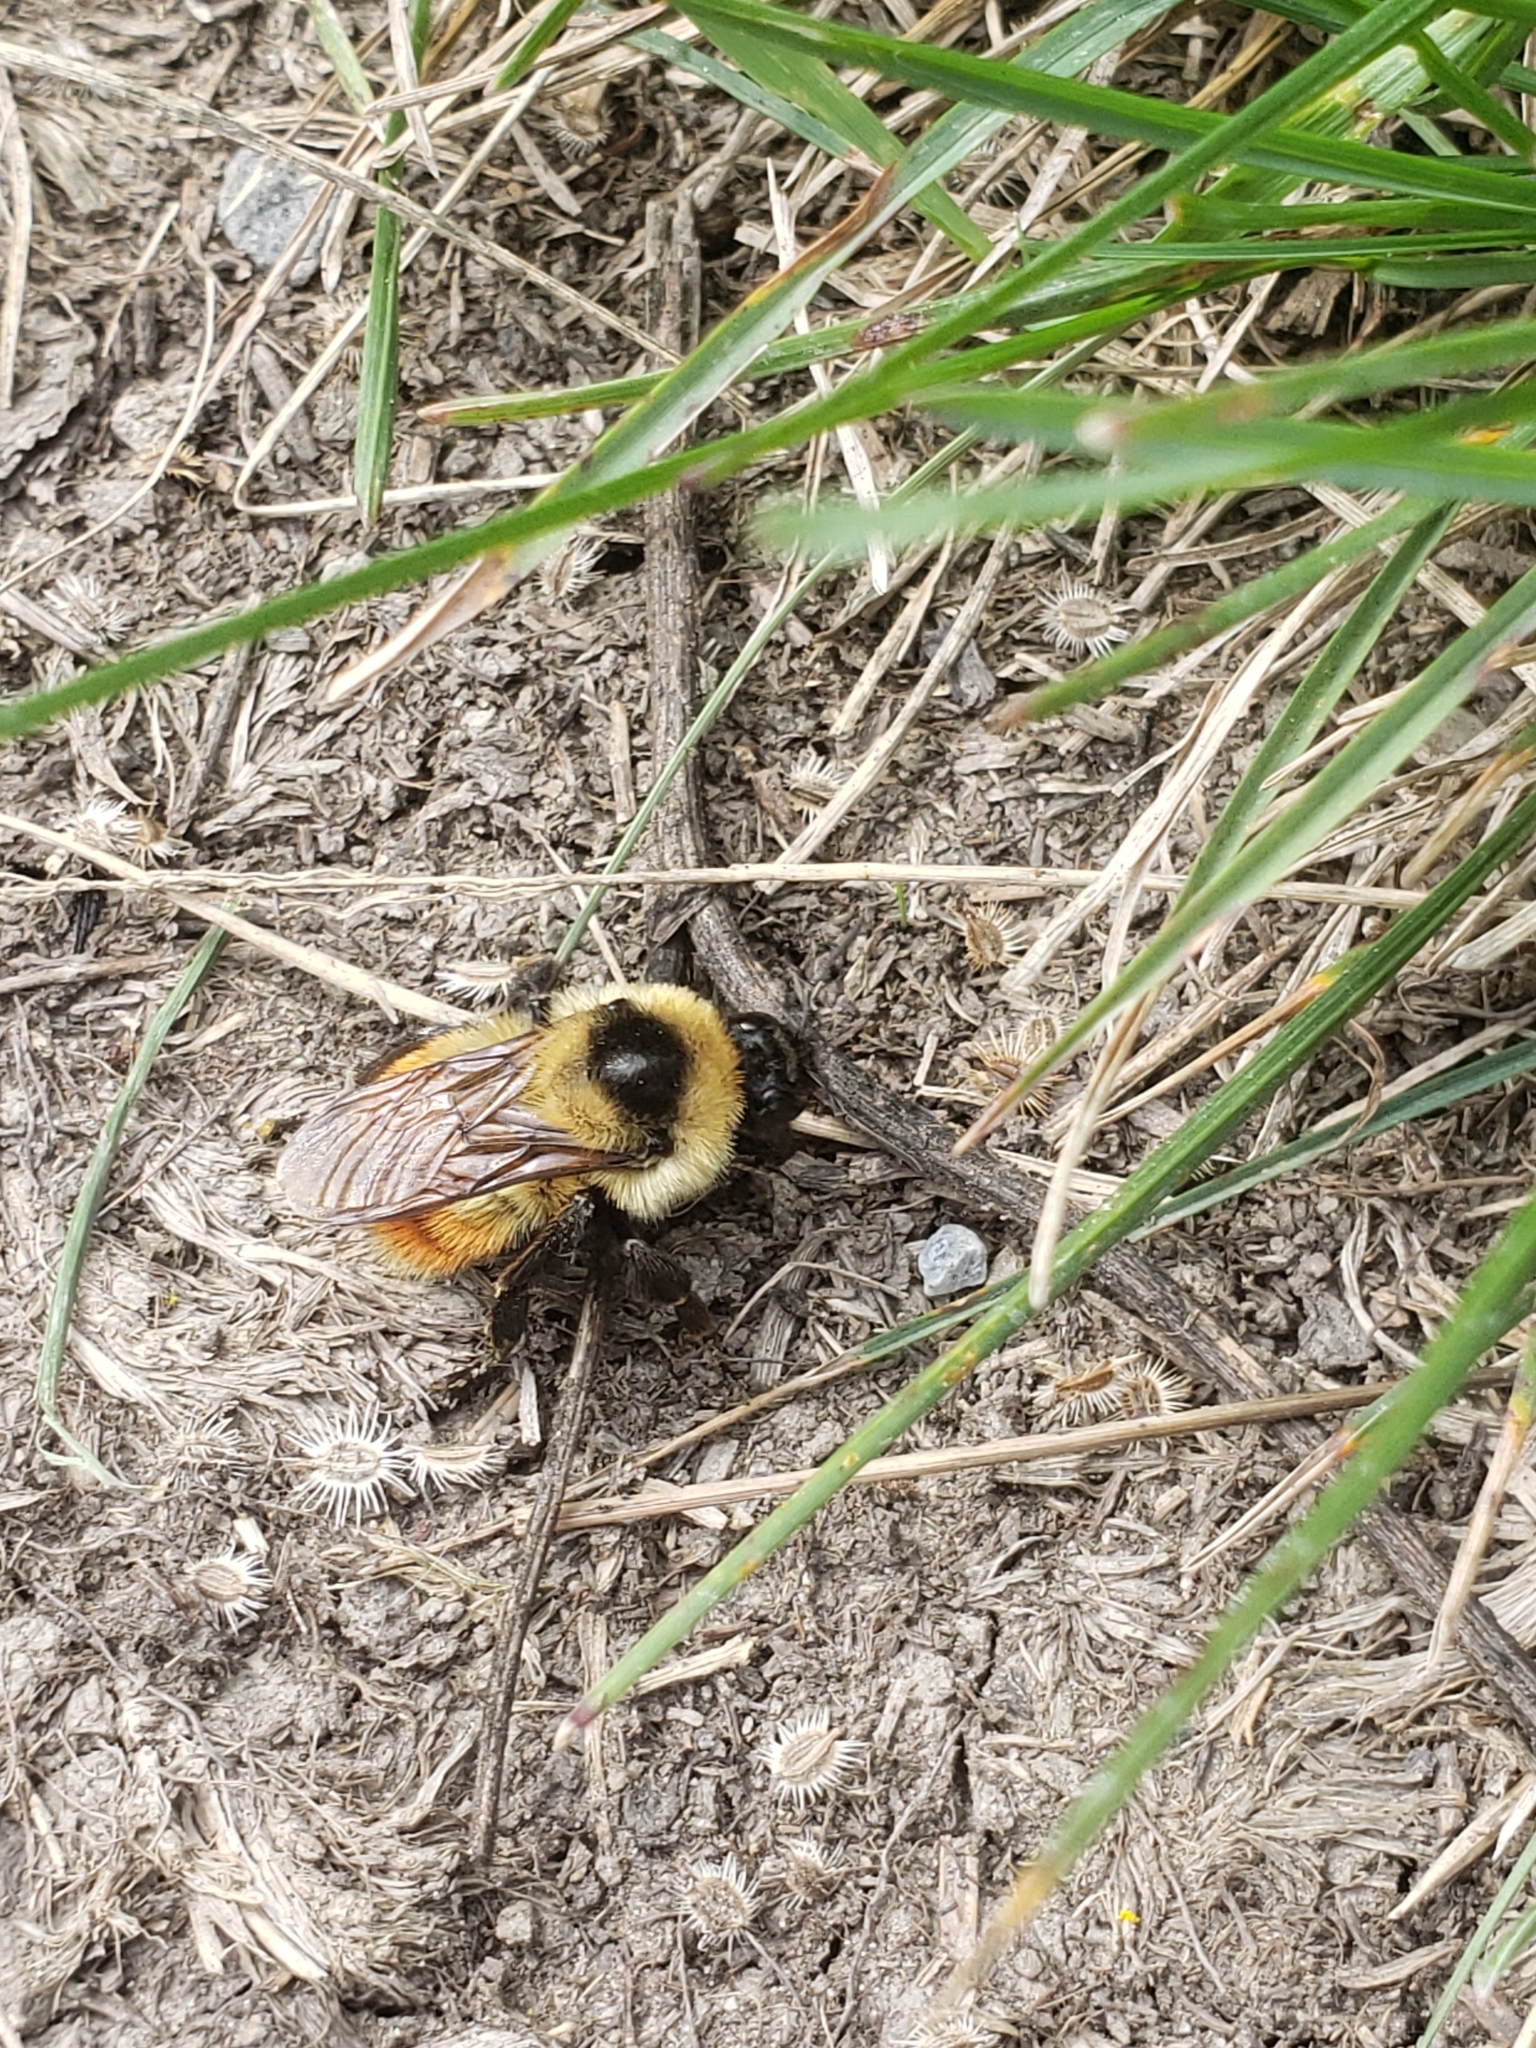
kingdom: Animalia
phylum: Arthropoda
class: Insecta
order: Hymenoptera
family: Apidae
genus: Bombus
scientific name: Bombus rufocinctus
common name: Red-belted bumble bee
